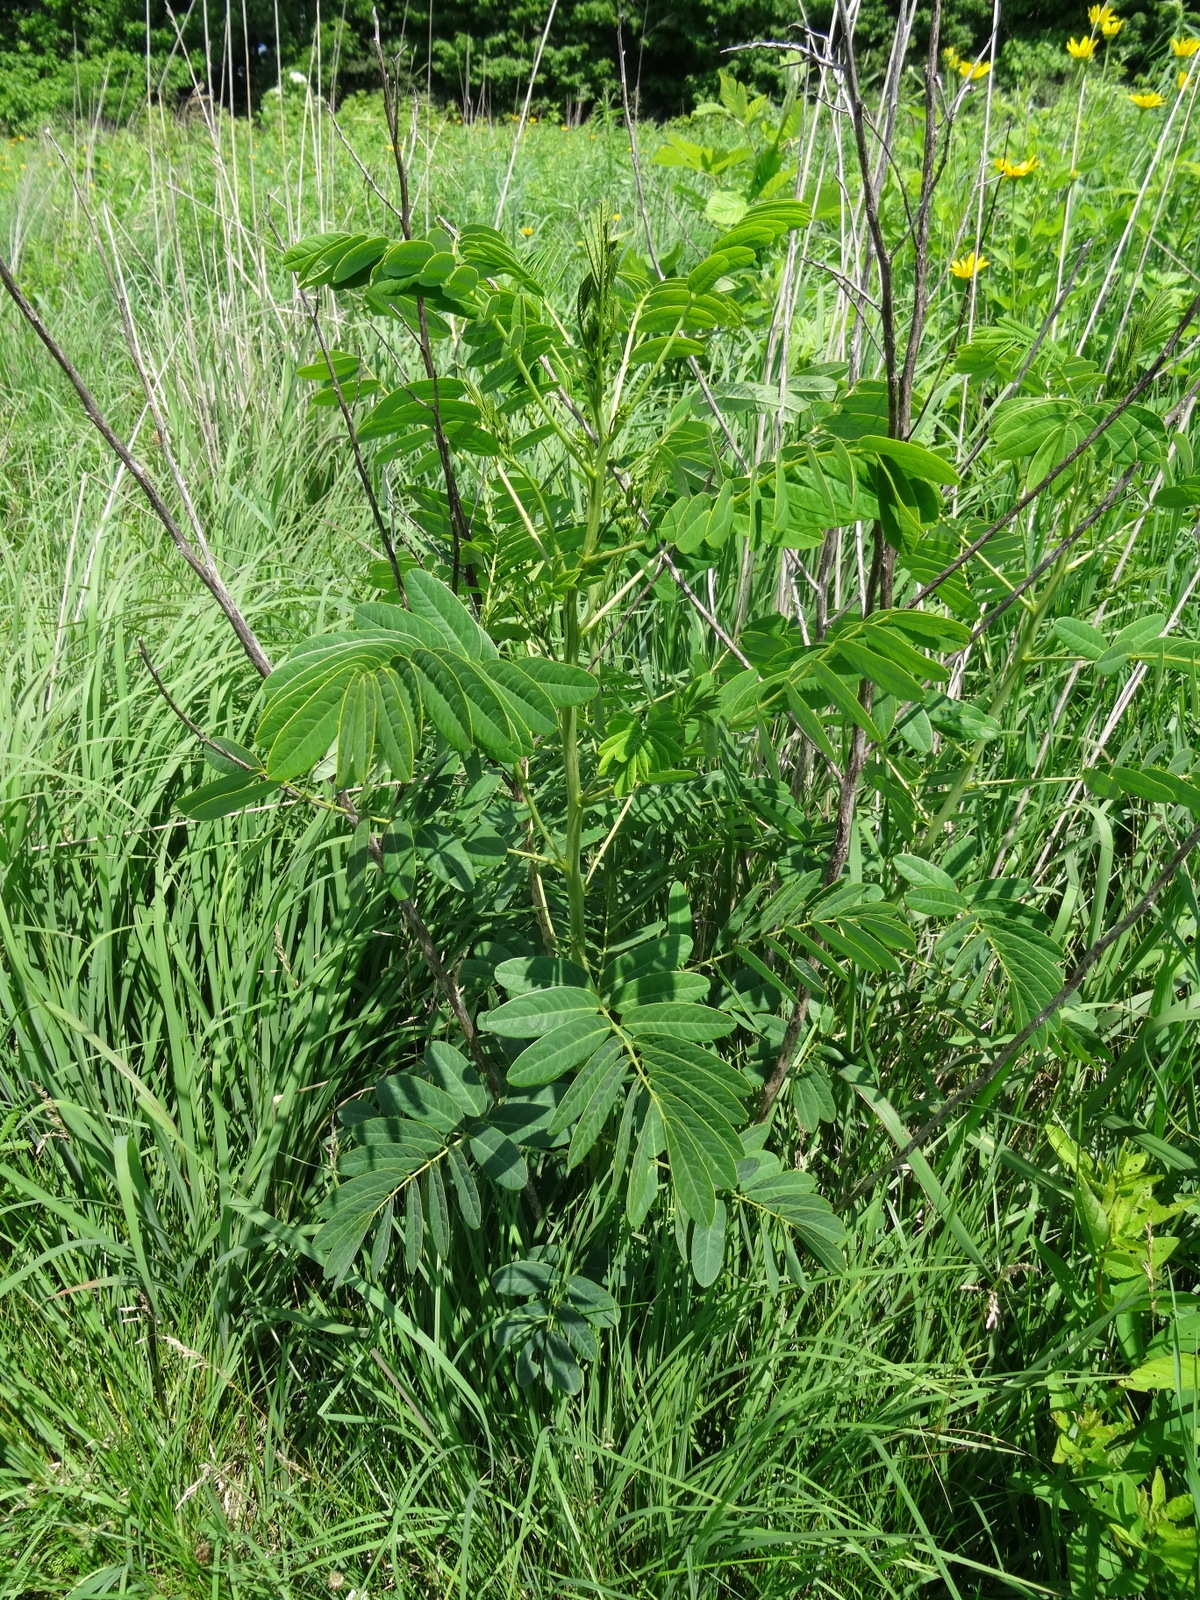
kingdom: Plantae
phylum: Tracheophyta
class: Magnoliopsida
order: Fabales
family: Fabaceae
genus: Senna
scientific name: Senna hebecarpa
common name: Wild senna
